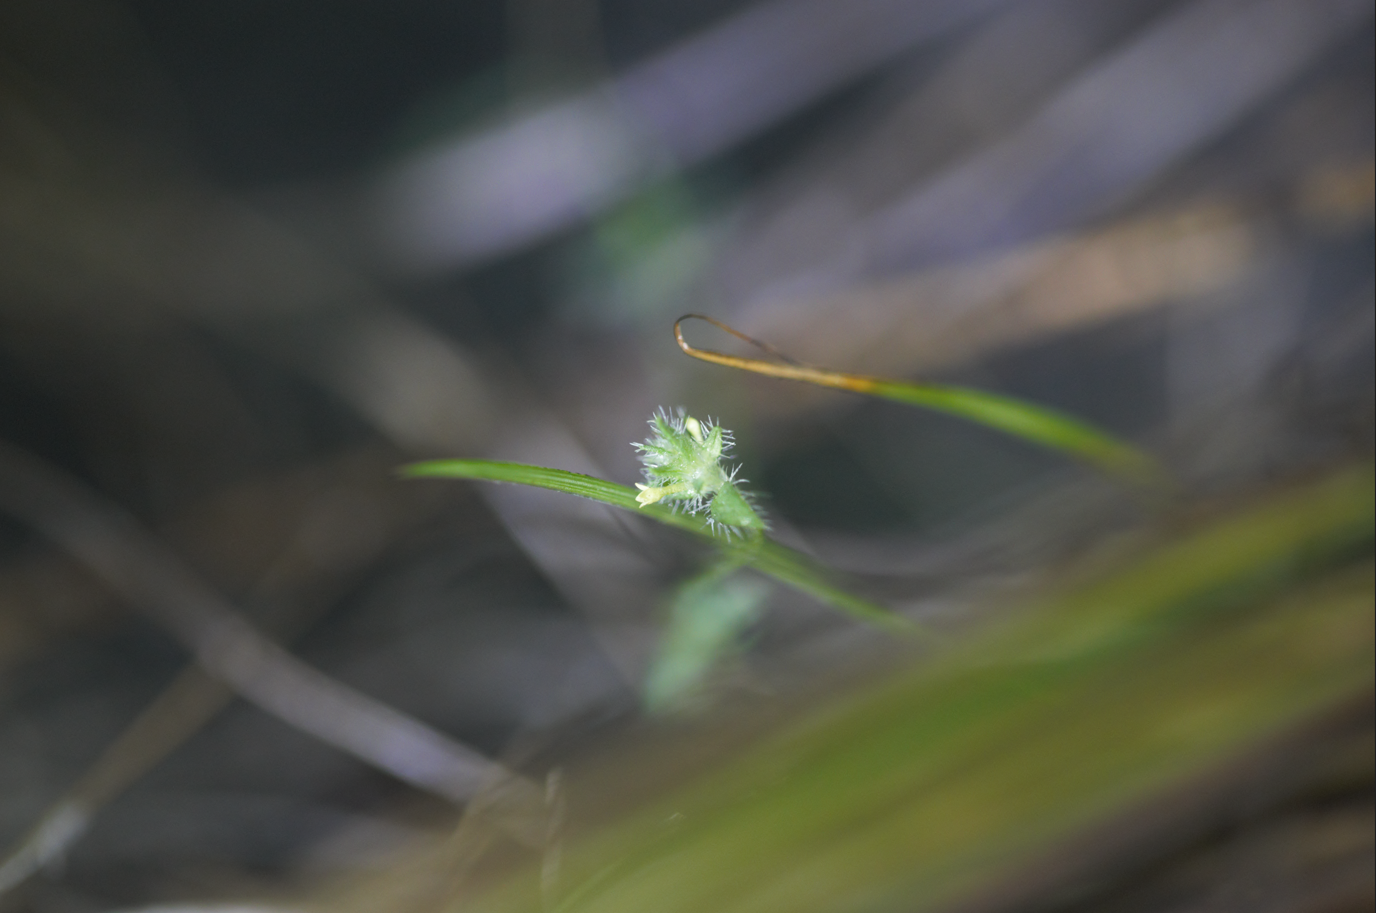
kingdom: Plantae
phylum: Tracheophyta
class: Magnoliopsida
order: Gentianales
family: Rubiaceae
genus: Perama
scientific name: Perama hirsuta
